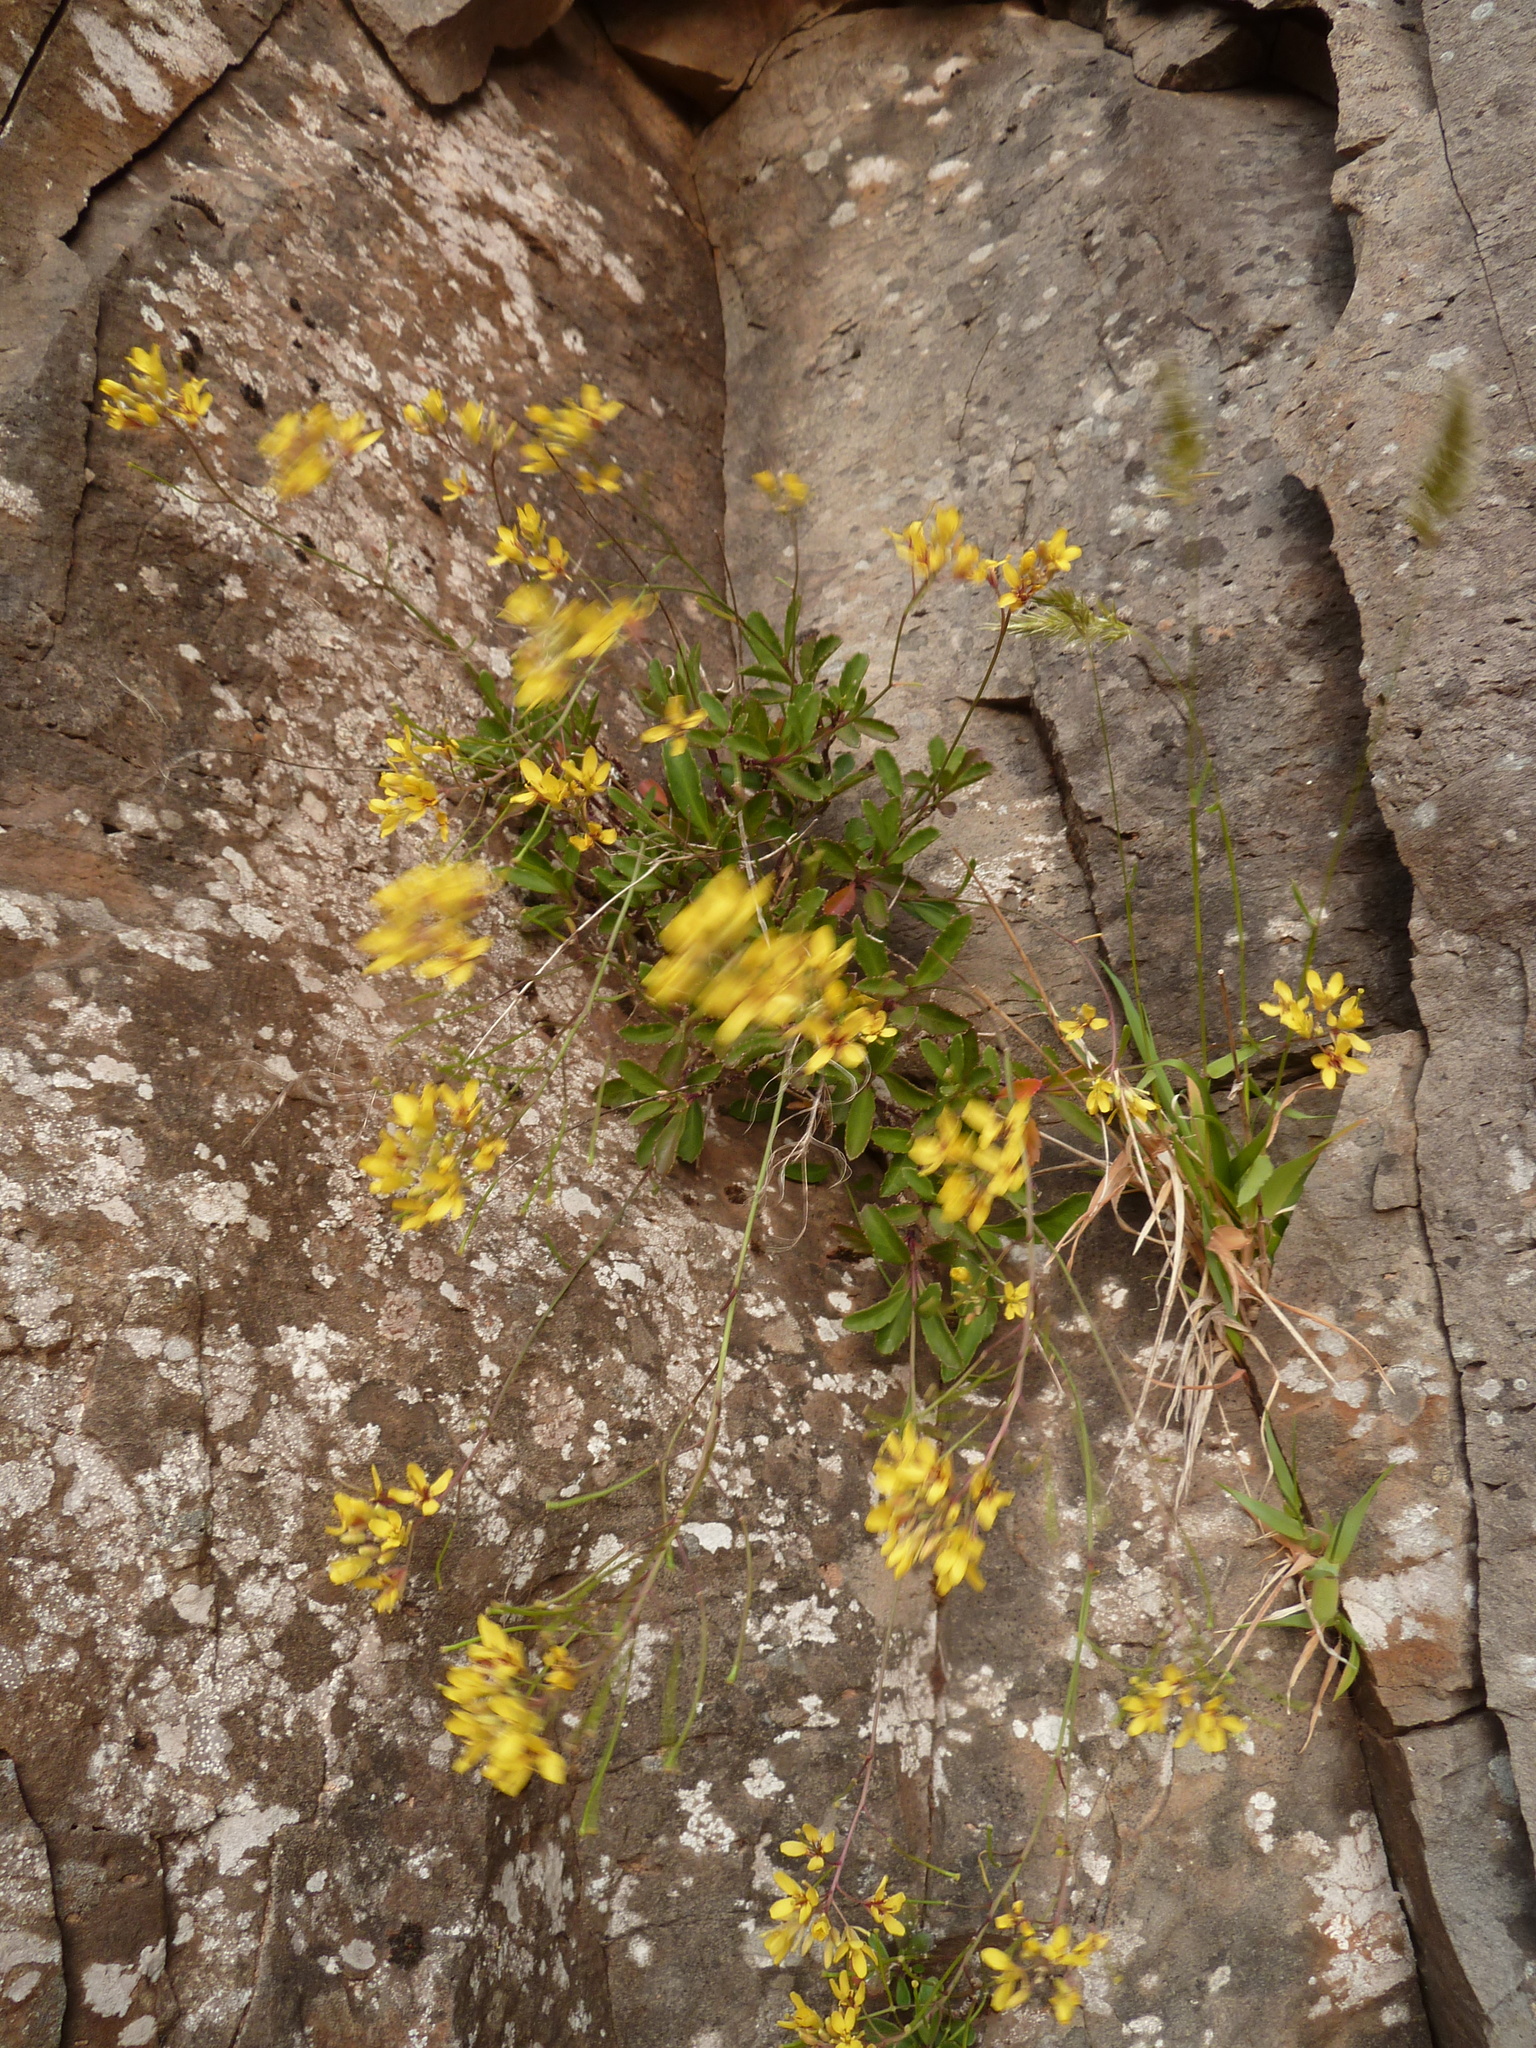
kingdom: Plantae
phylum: Tracheophyta
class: Magnoliopsida
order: Brassicales
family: Brassicaceae
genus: Sinapidendron
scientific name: Sinapidendron frutescens
